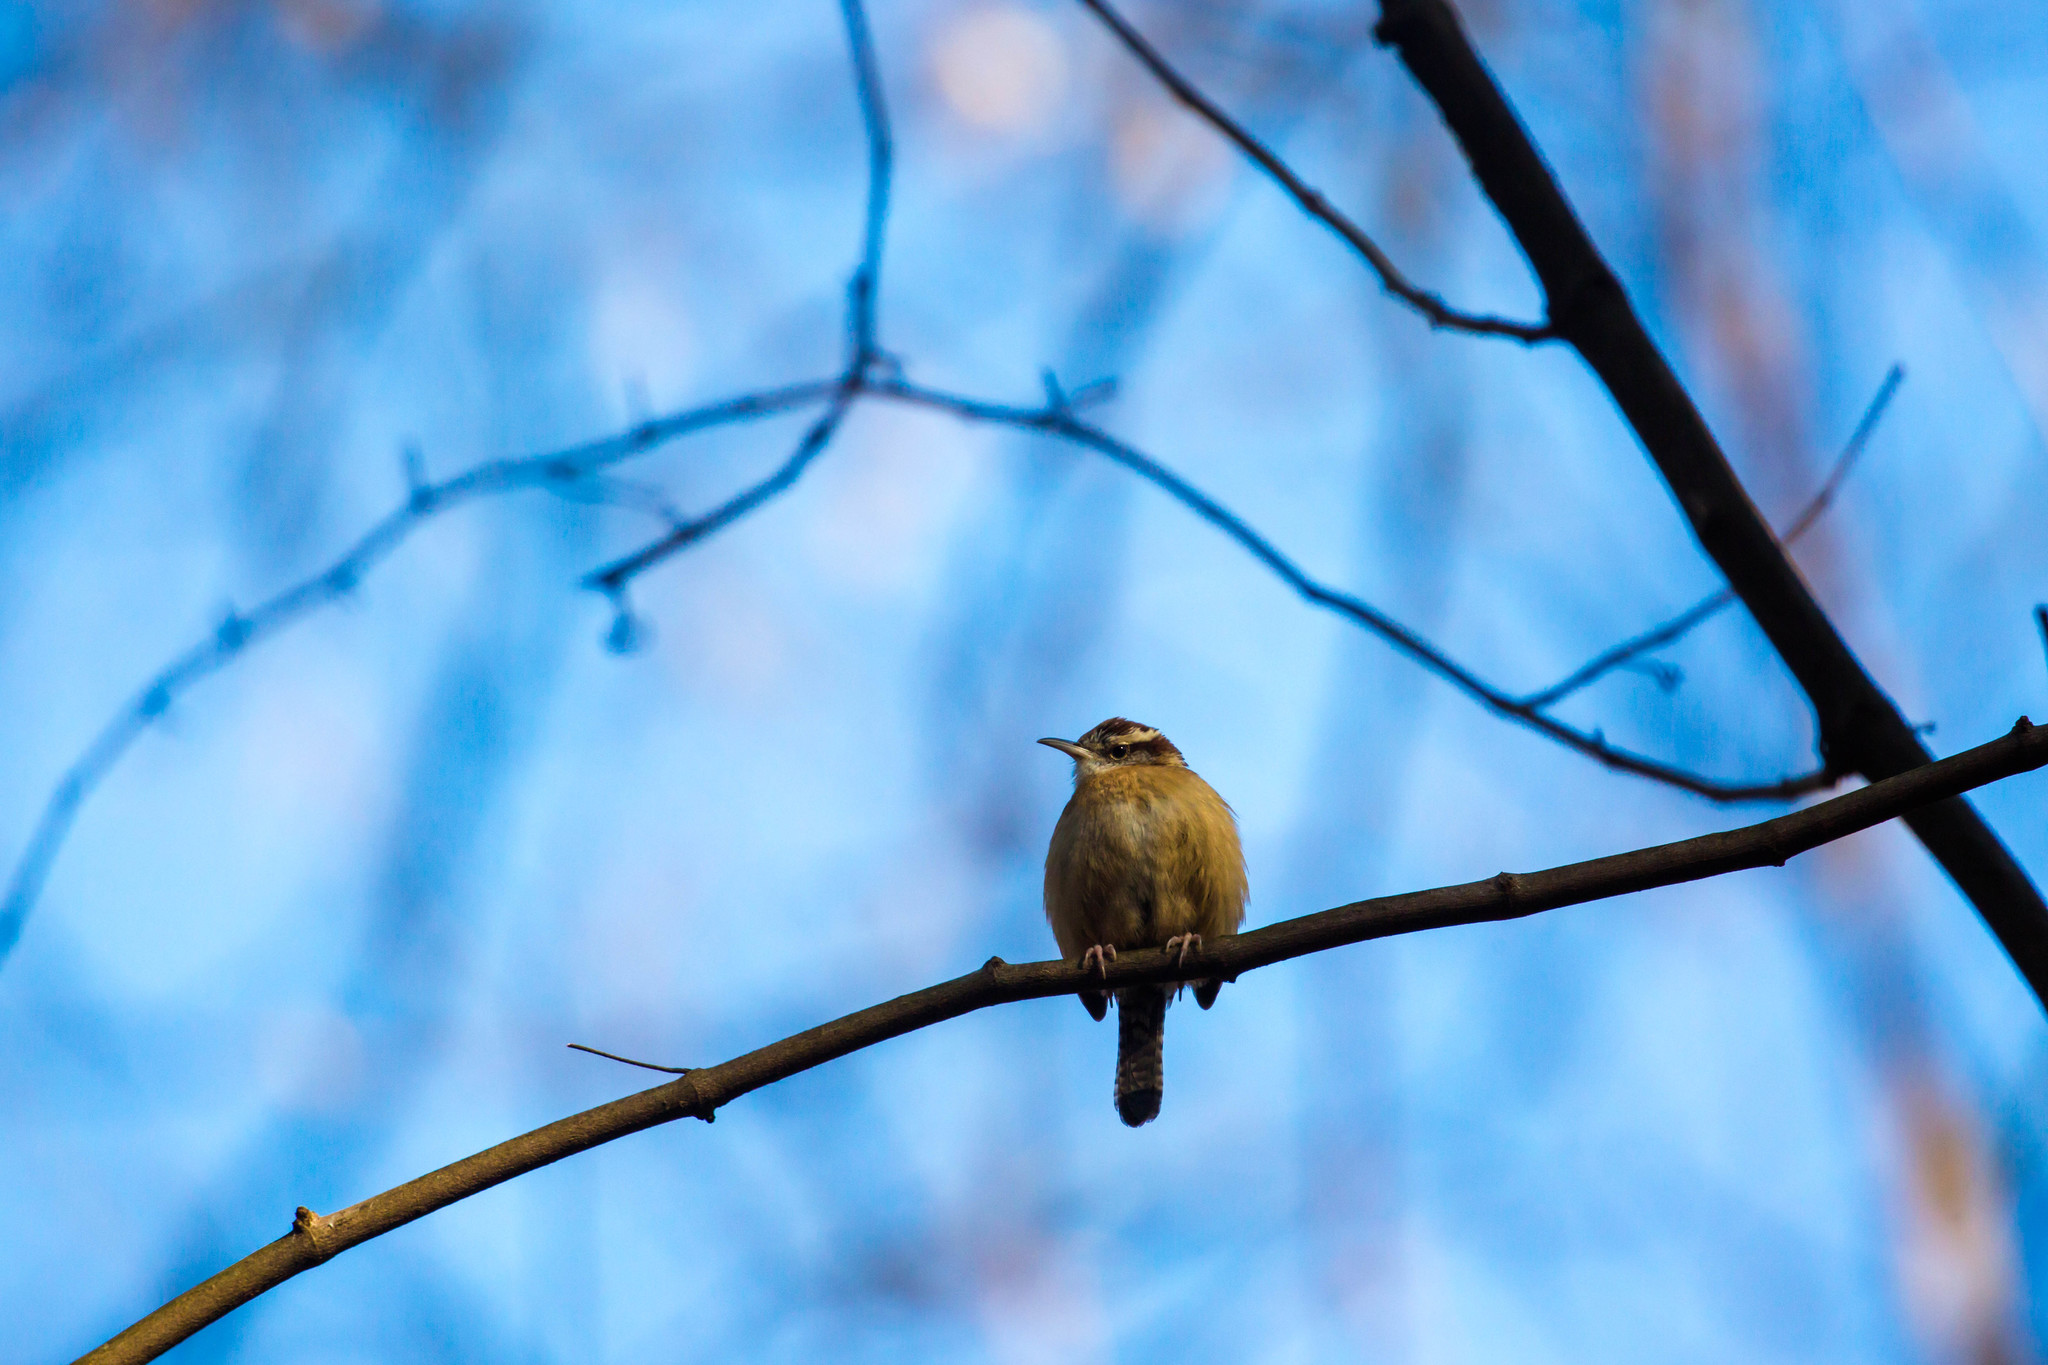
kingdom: Animalia
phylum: Chordata
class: Aves
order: Passeriformes
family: Troglodytidae
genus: Thryothorus
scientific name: Thryothorus ludovicianus
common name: Carolina wren
